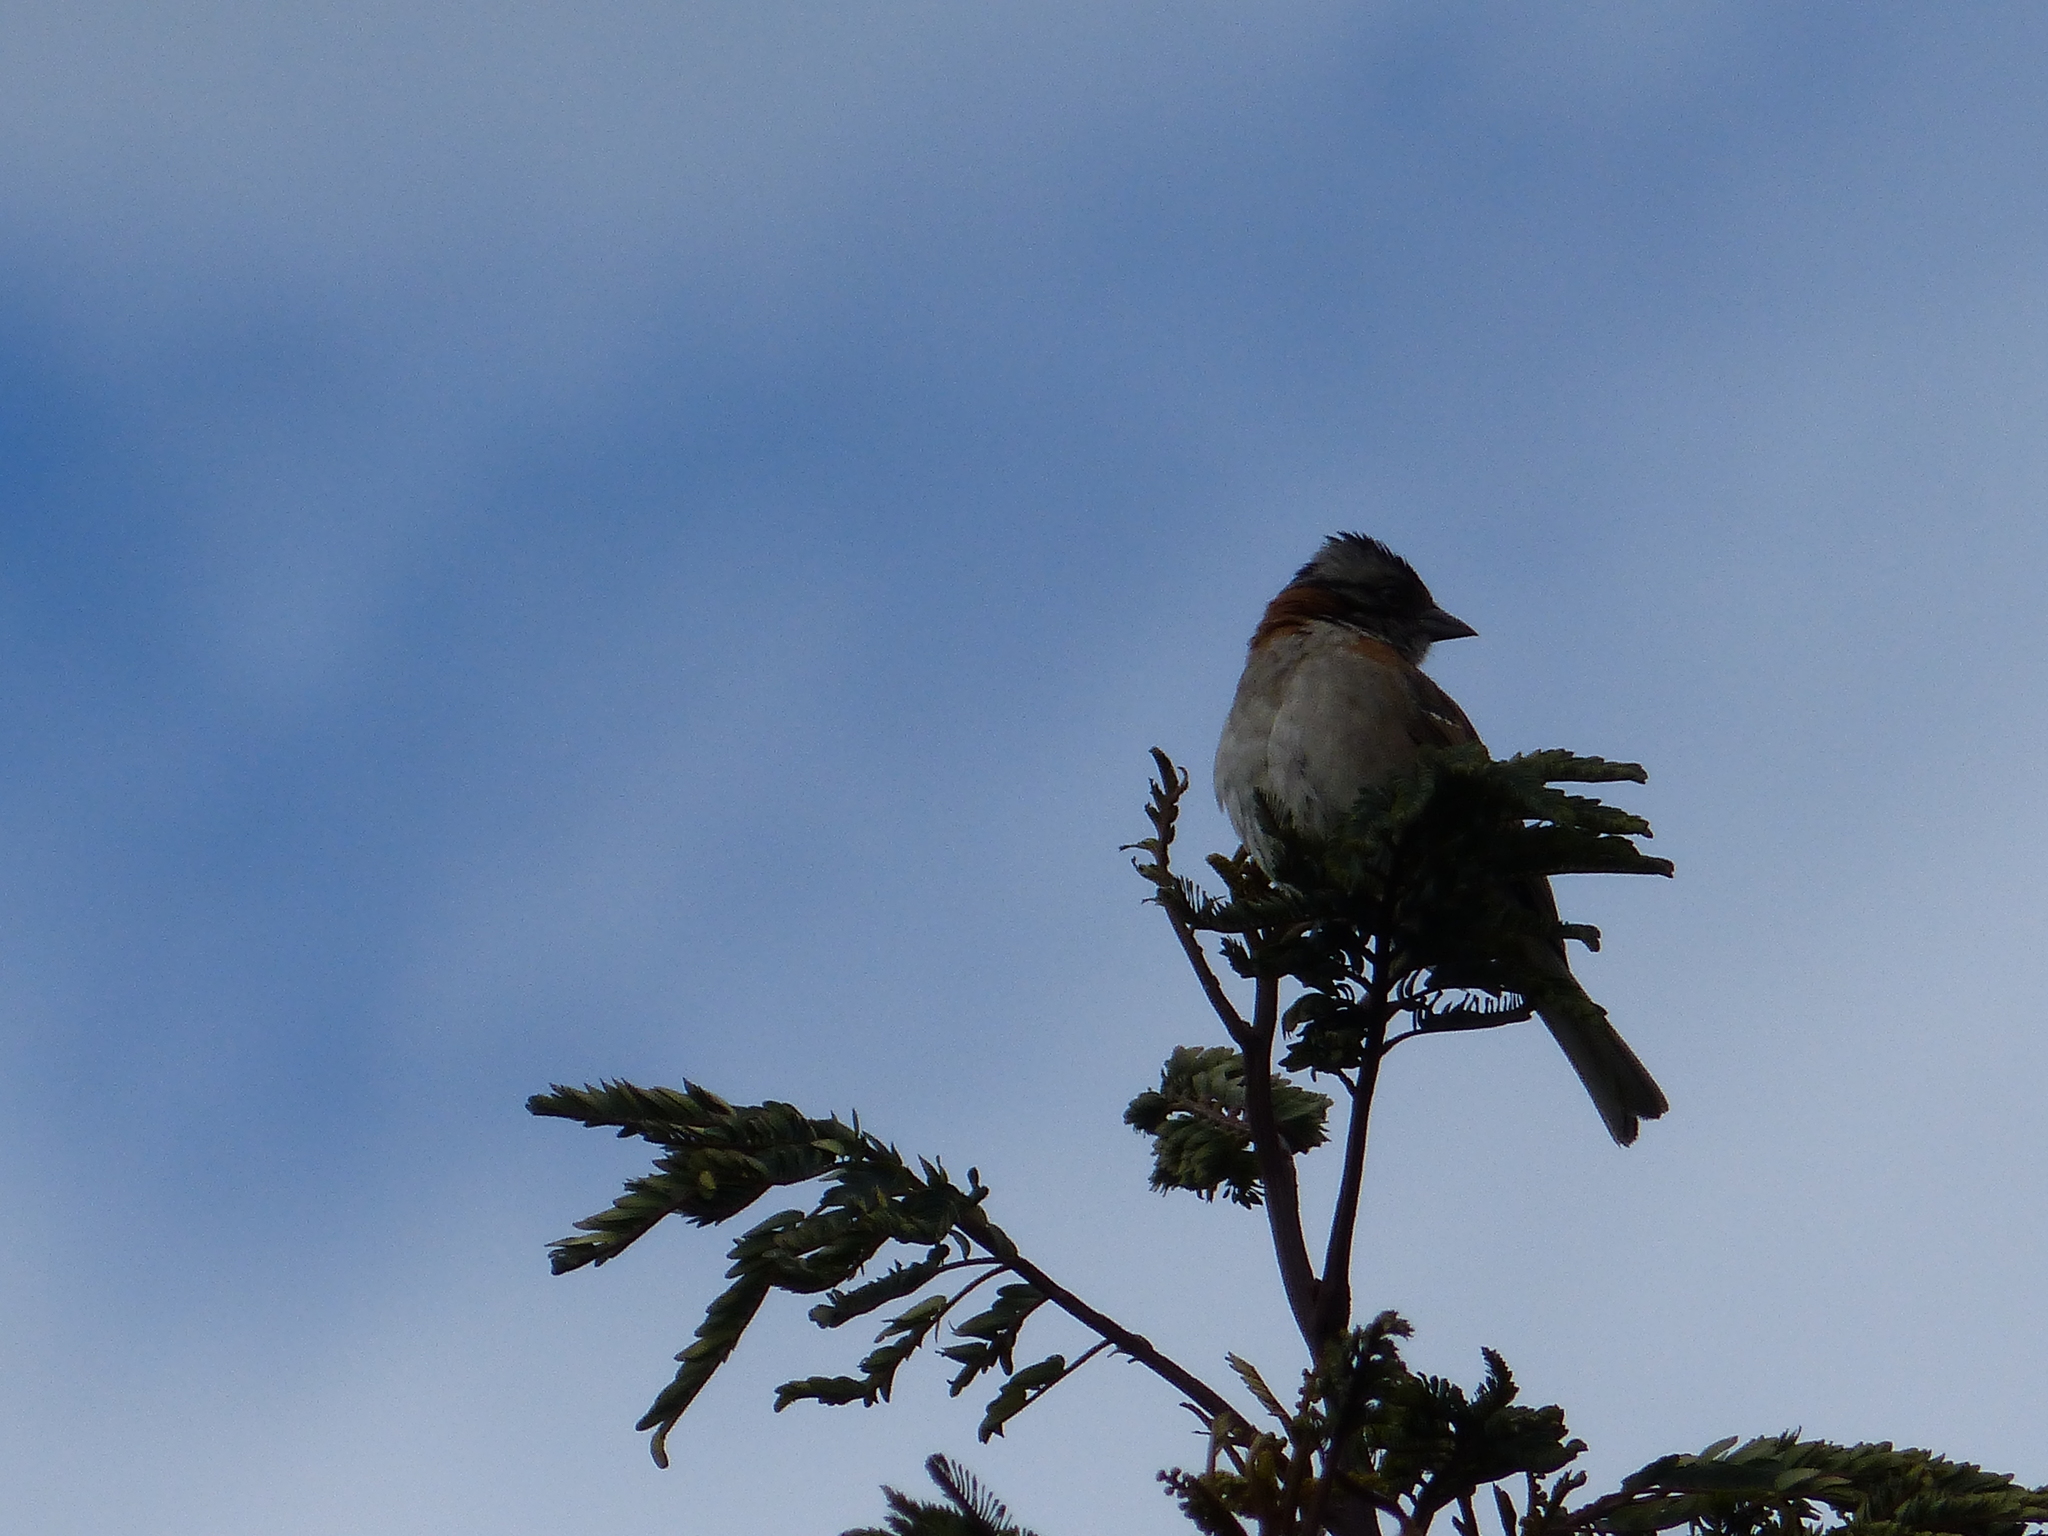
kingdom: Animalia
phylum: Chordata
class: Aves
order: Passeriformes
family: Passerellidae
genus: Zonotrichia
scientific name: Zonotrichia capensis
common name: Rufous-collared sparrow
